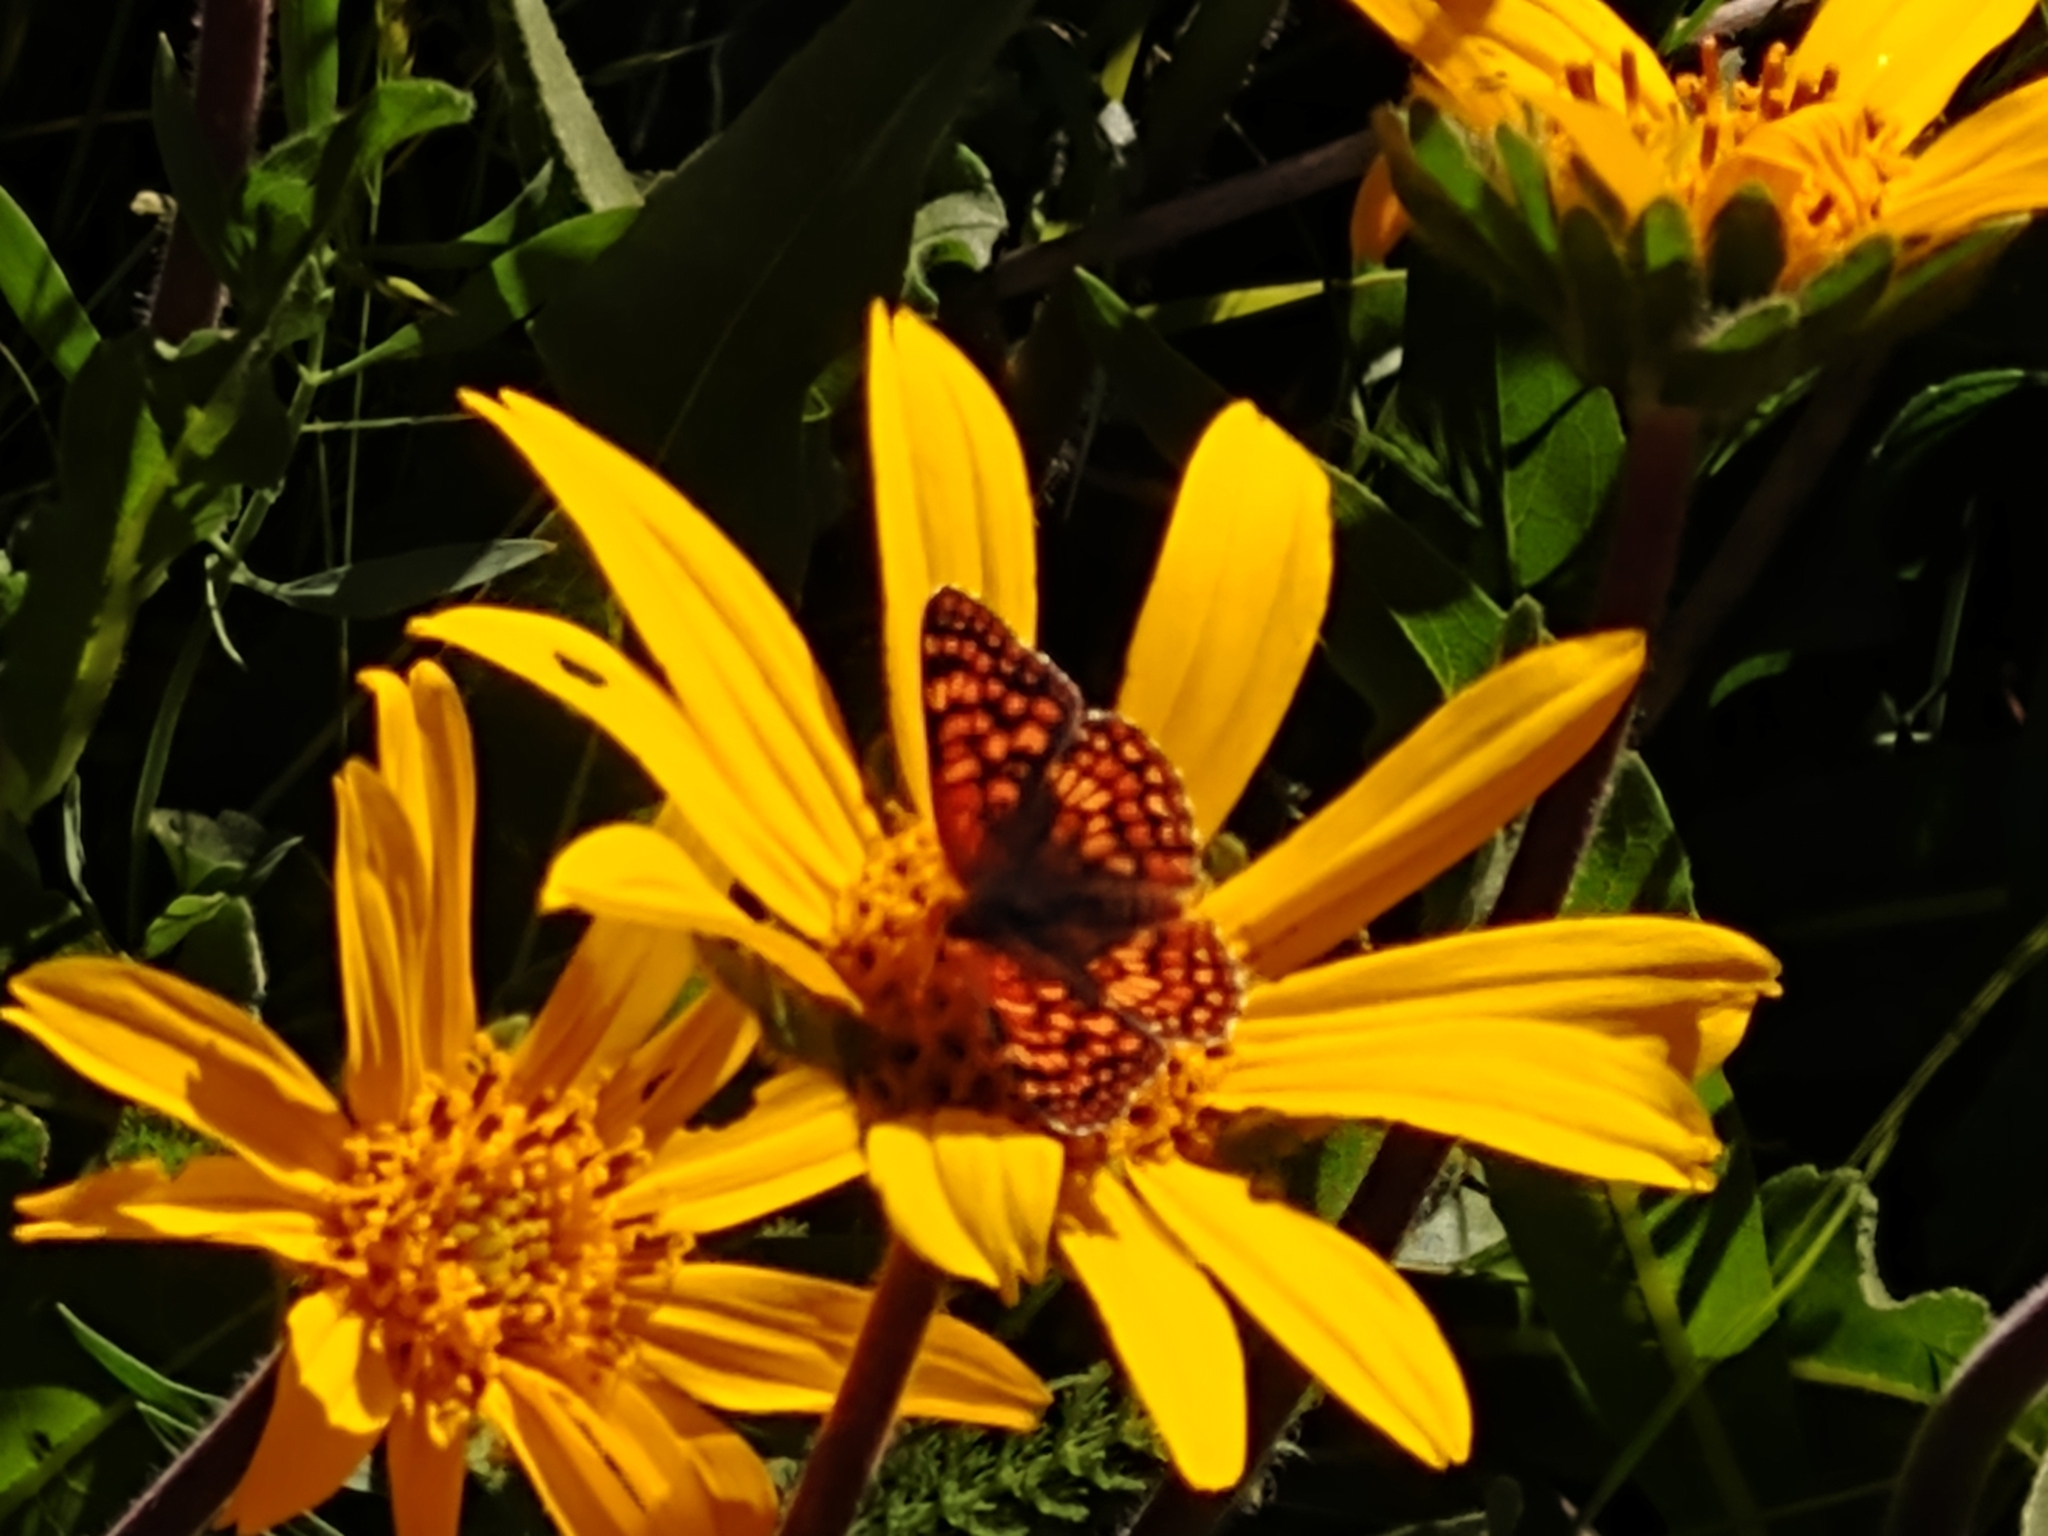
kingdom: Animalia
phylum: Arthropoda
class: Insecta
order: Lepidoptera
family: Nymphalidae
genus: Chlosyne
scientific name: Chlosyne palla
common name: Northern checkerspot
